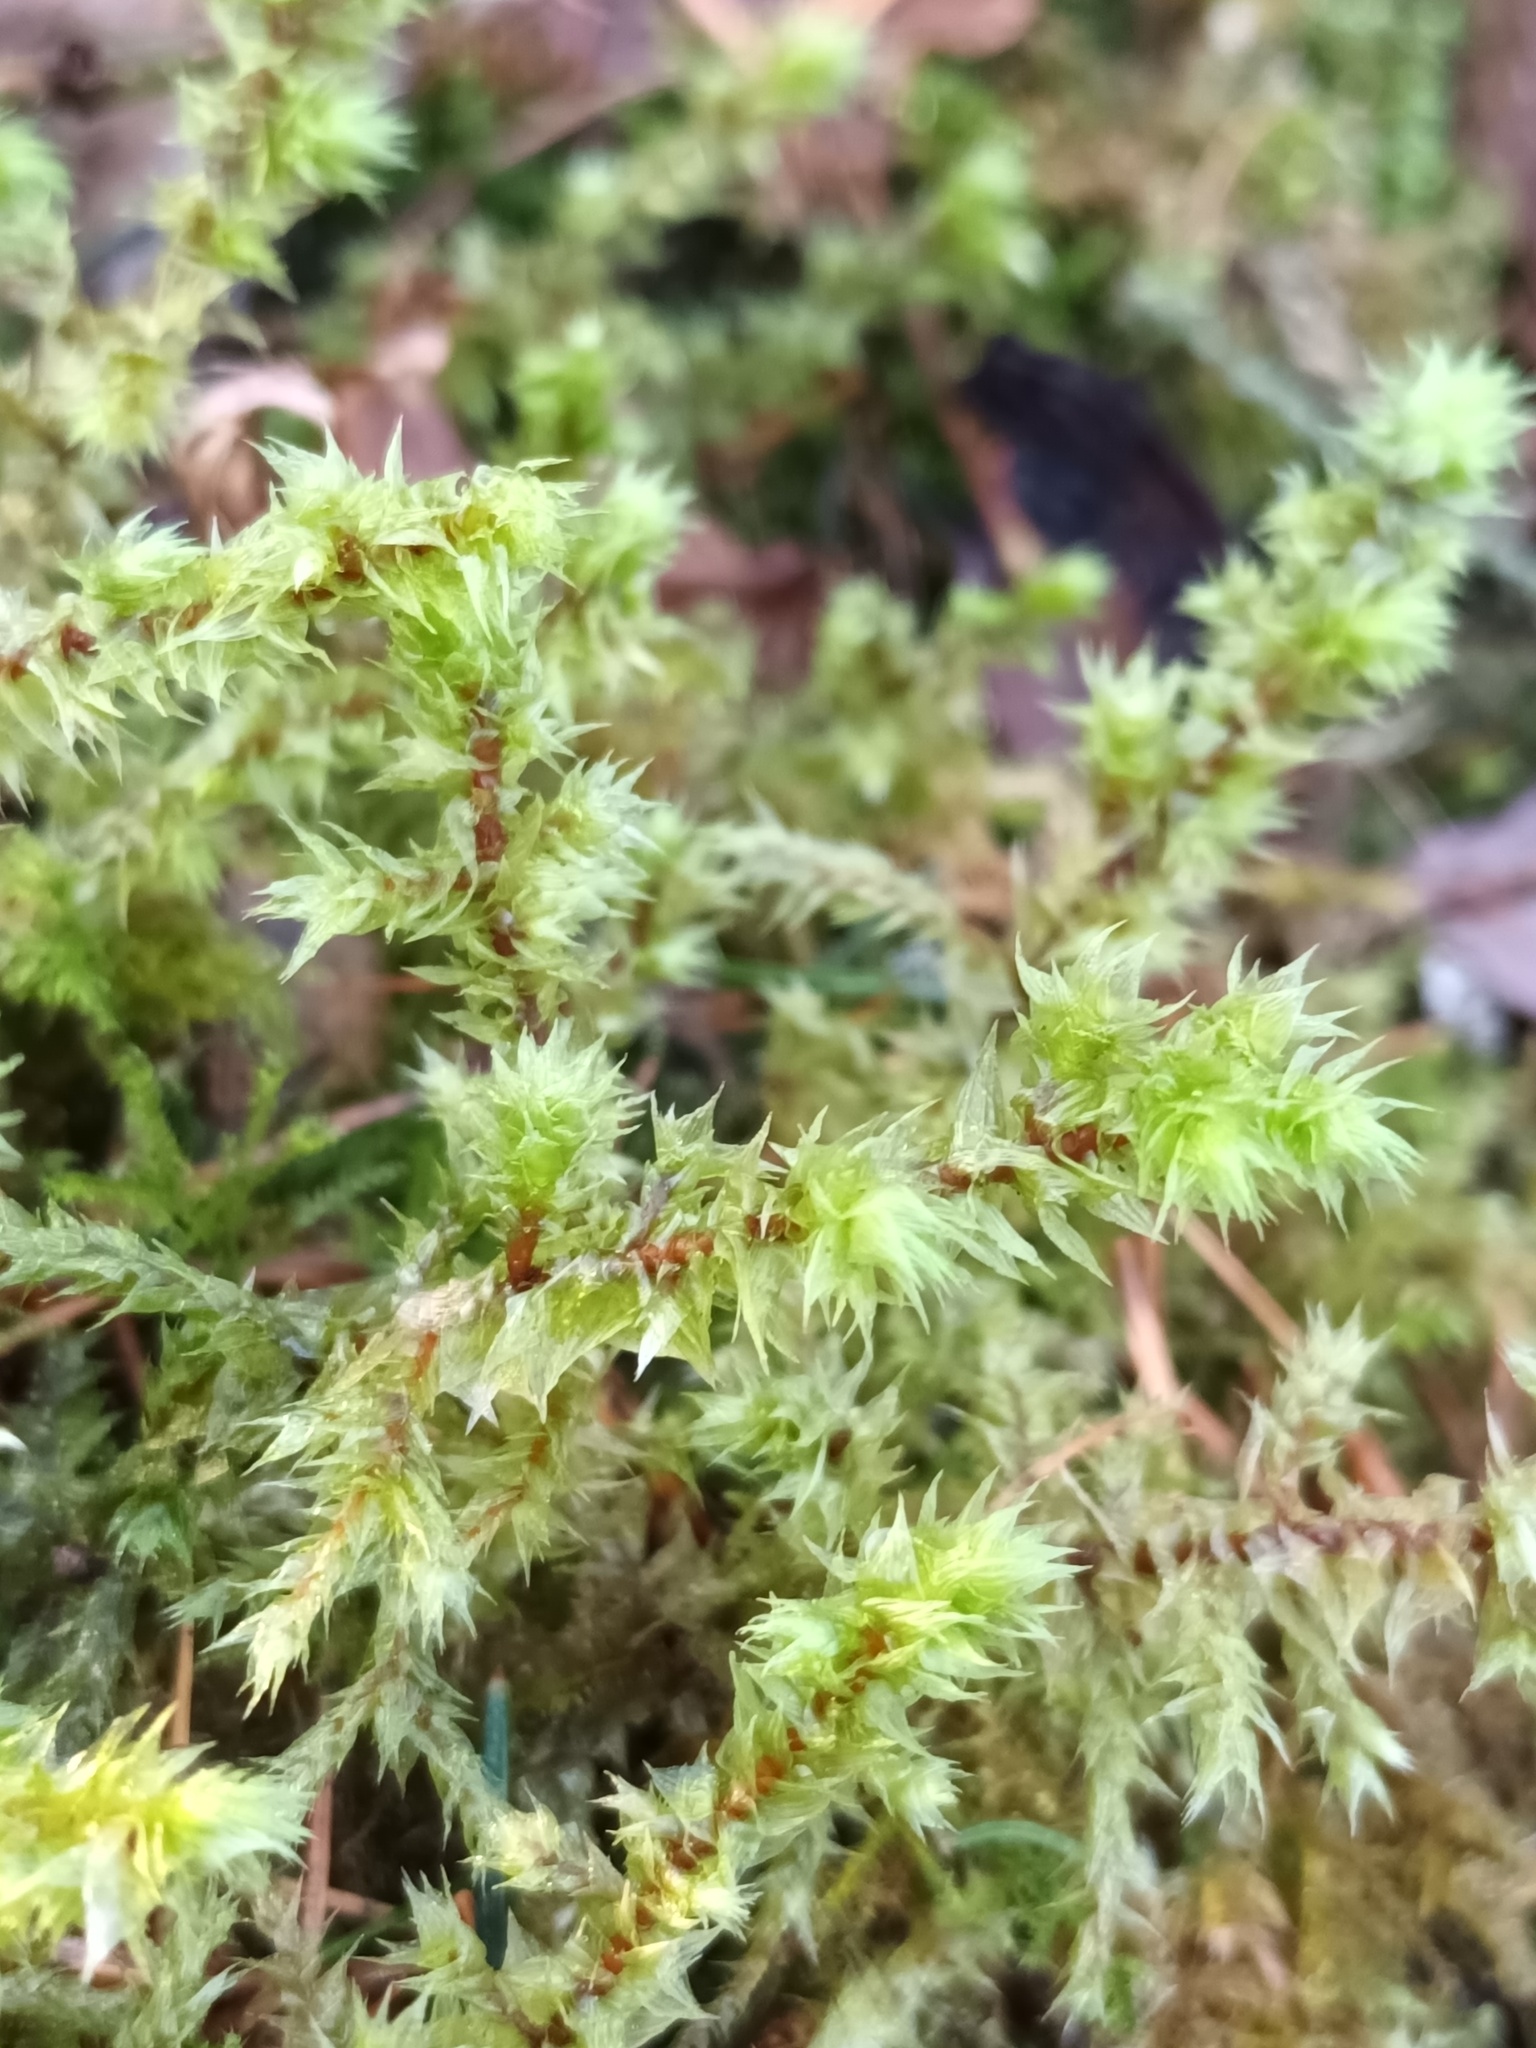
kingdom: Plantae
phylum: Bryophyta
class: Bryopsida
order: Hypnales
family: Hylocomiaceae
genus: Hylocomiadelphus
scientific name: Hylocomiadelphus triquetrus
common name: Rough goose neck moss
